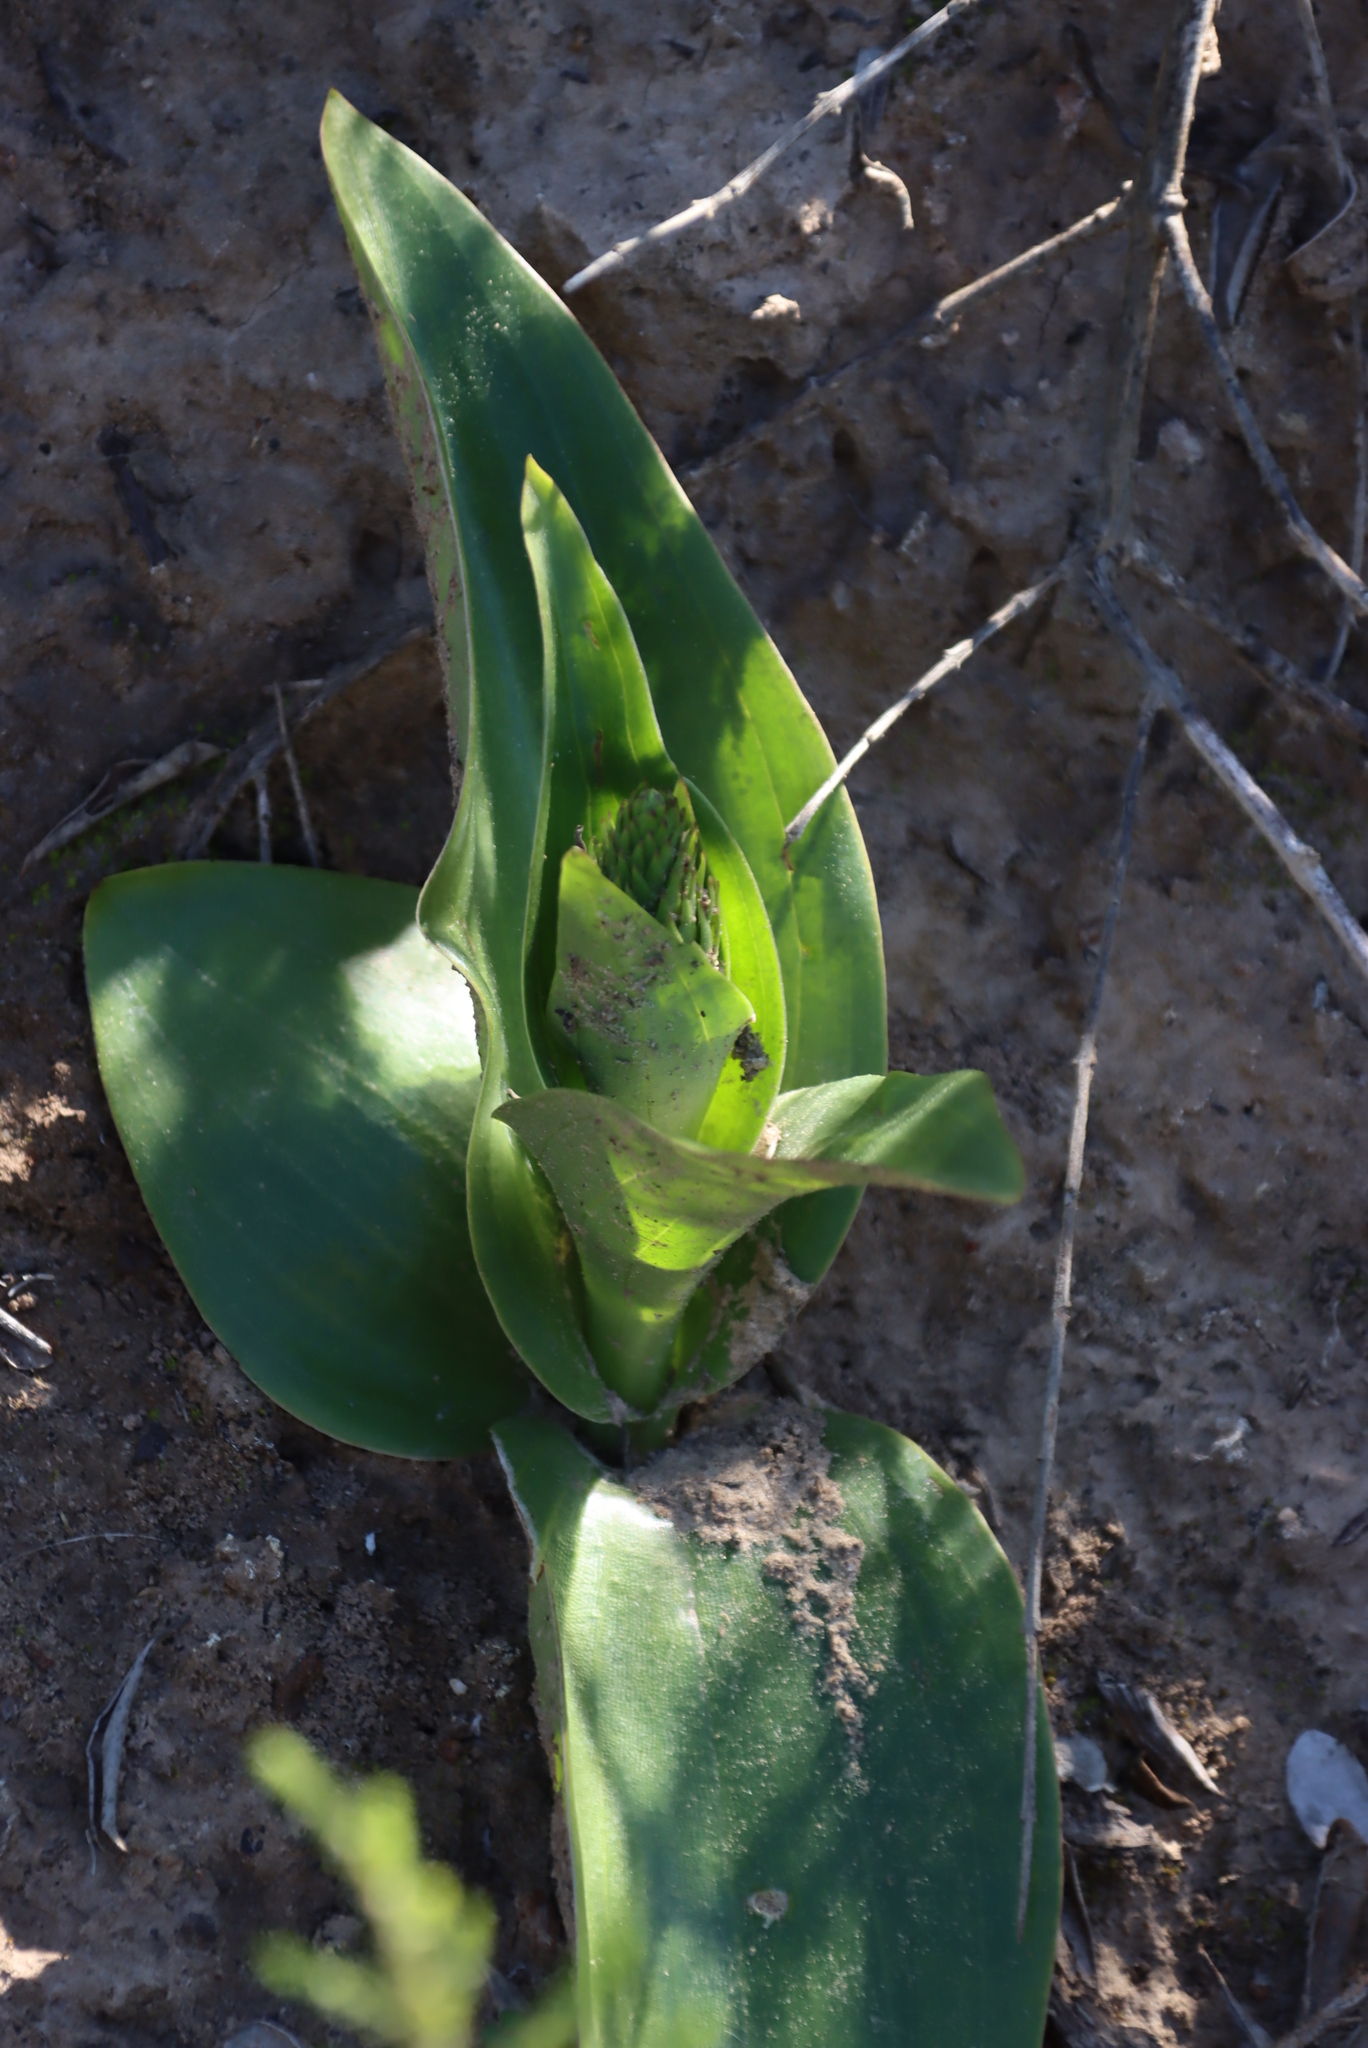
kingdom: Plantae
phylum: Tracheophyta
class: Liliopsida
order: Asparagales
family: Orchidaceae
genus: Satyrium
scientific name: Satyrium coriifolium
